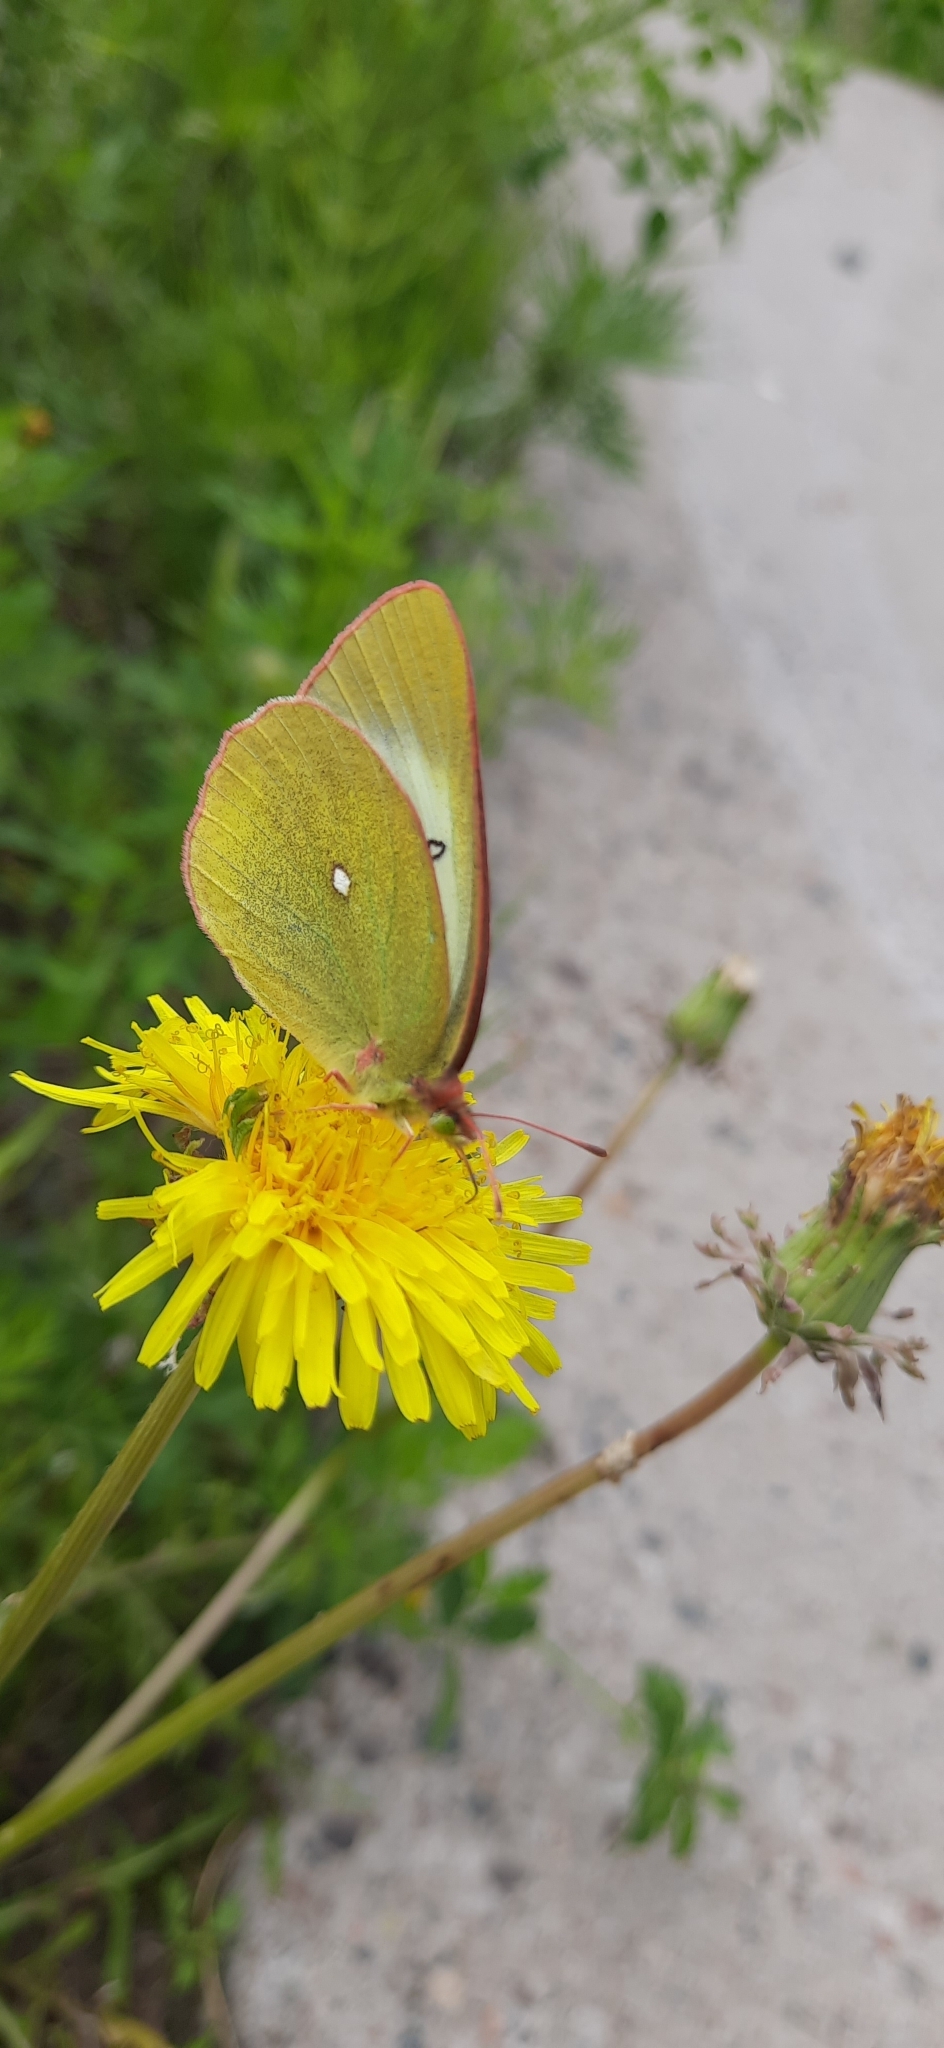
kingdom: Animalia
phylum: Arthropoda
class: Insecta
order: Lepidoptera
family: Pieridae
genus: Colias
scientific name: Colias palaeno
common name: Moorland clouded yellow
